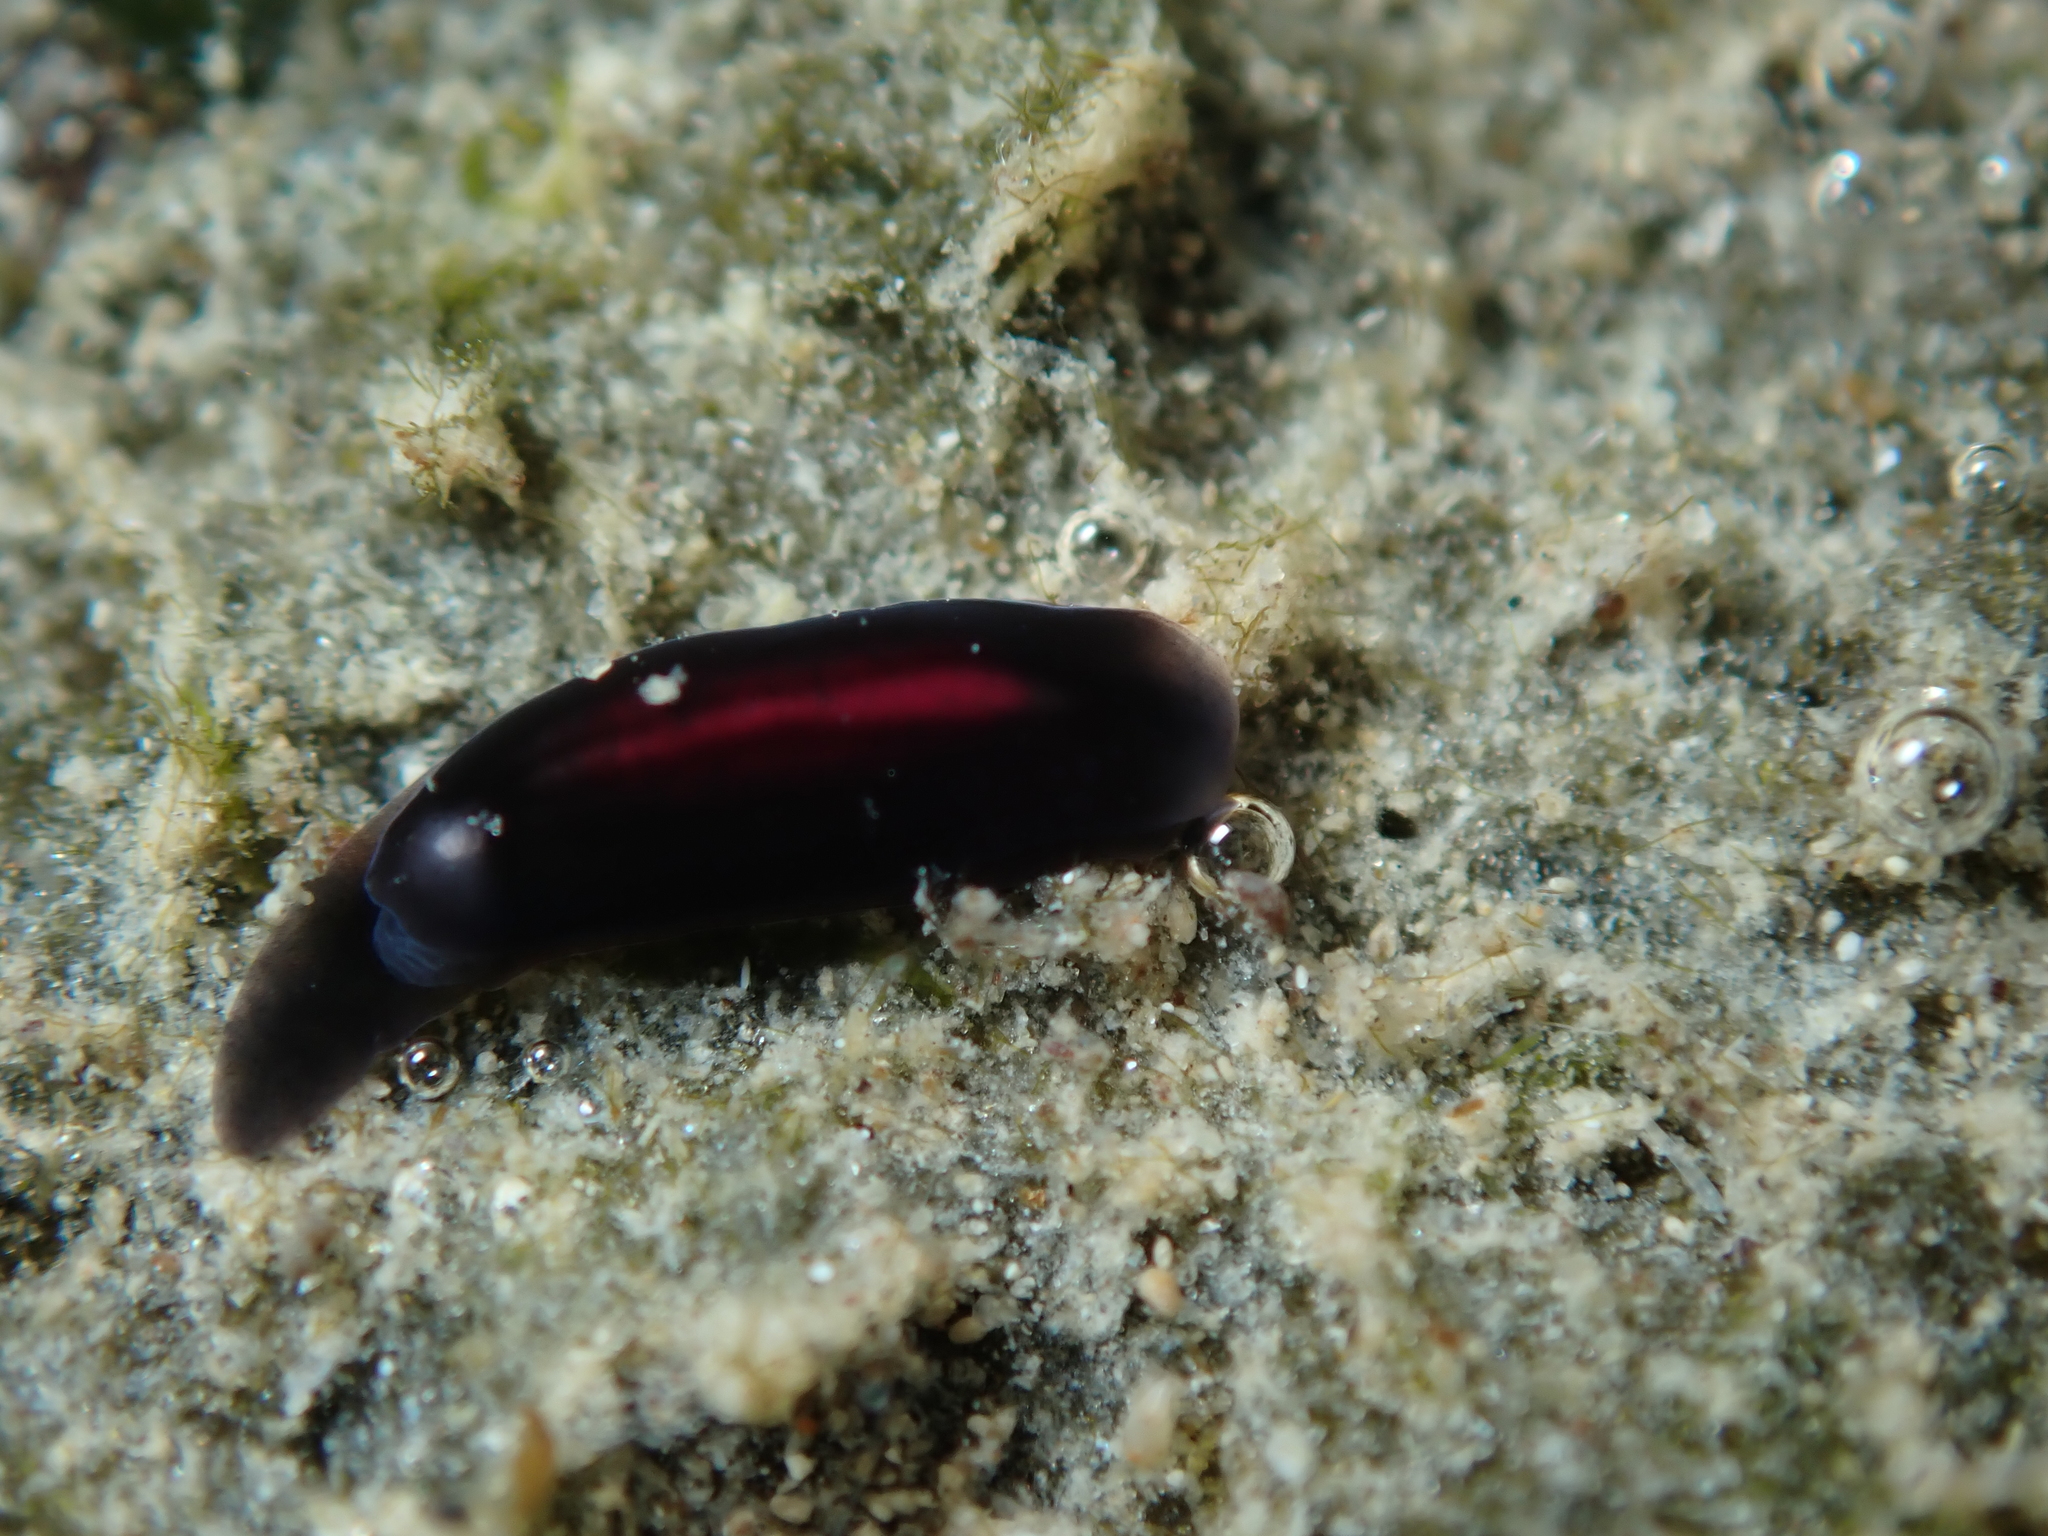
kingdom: Animalia
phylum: Mollusca
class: Gastropoda
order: Runcinida
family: Runcinidae
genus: Runcina
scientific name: Runcina katipoides
